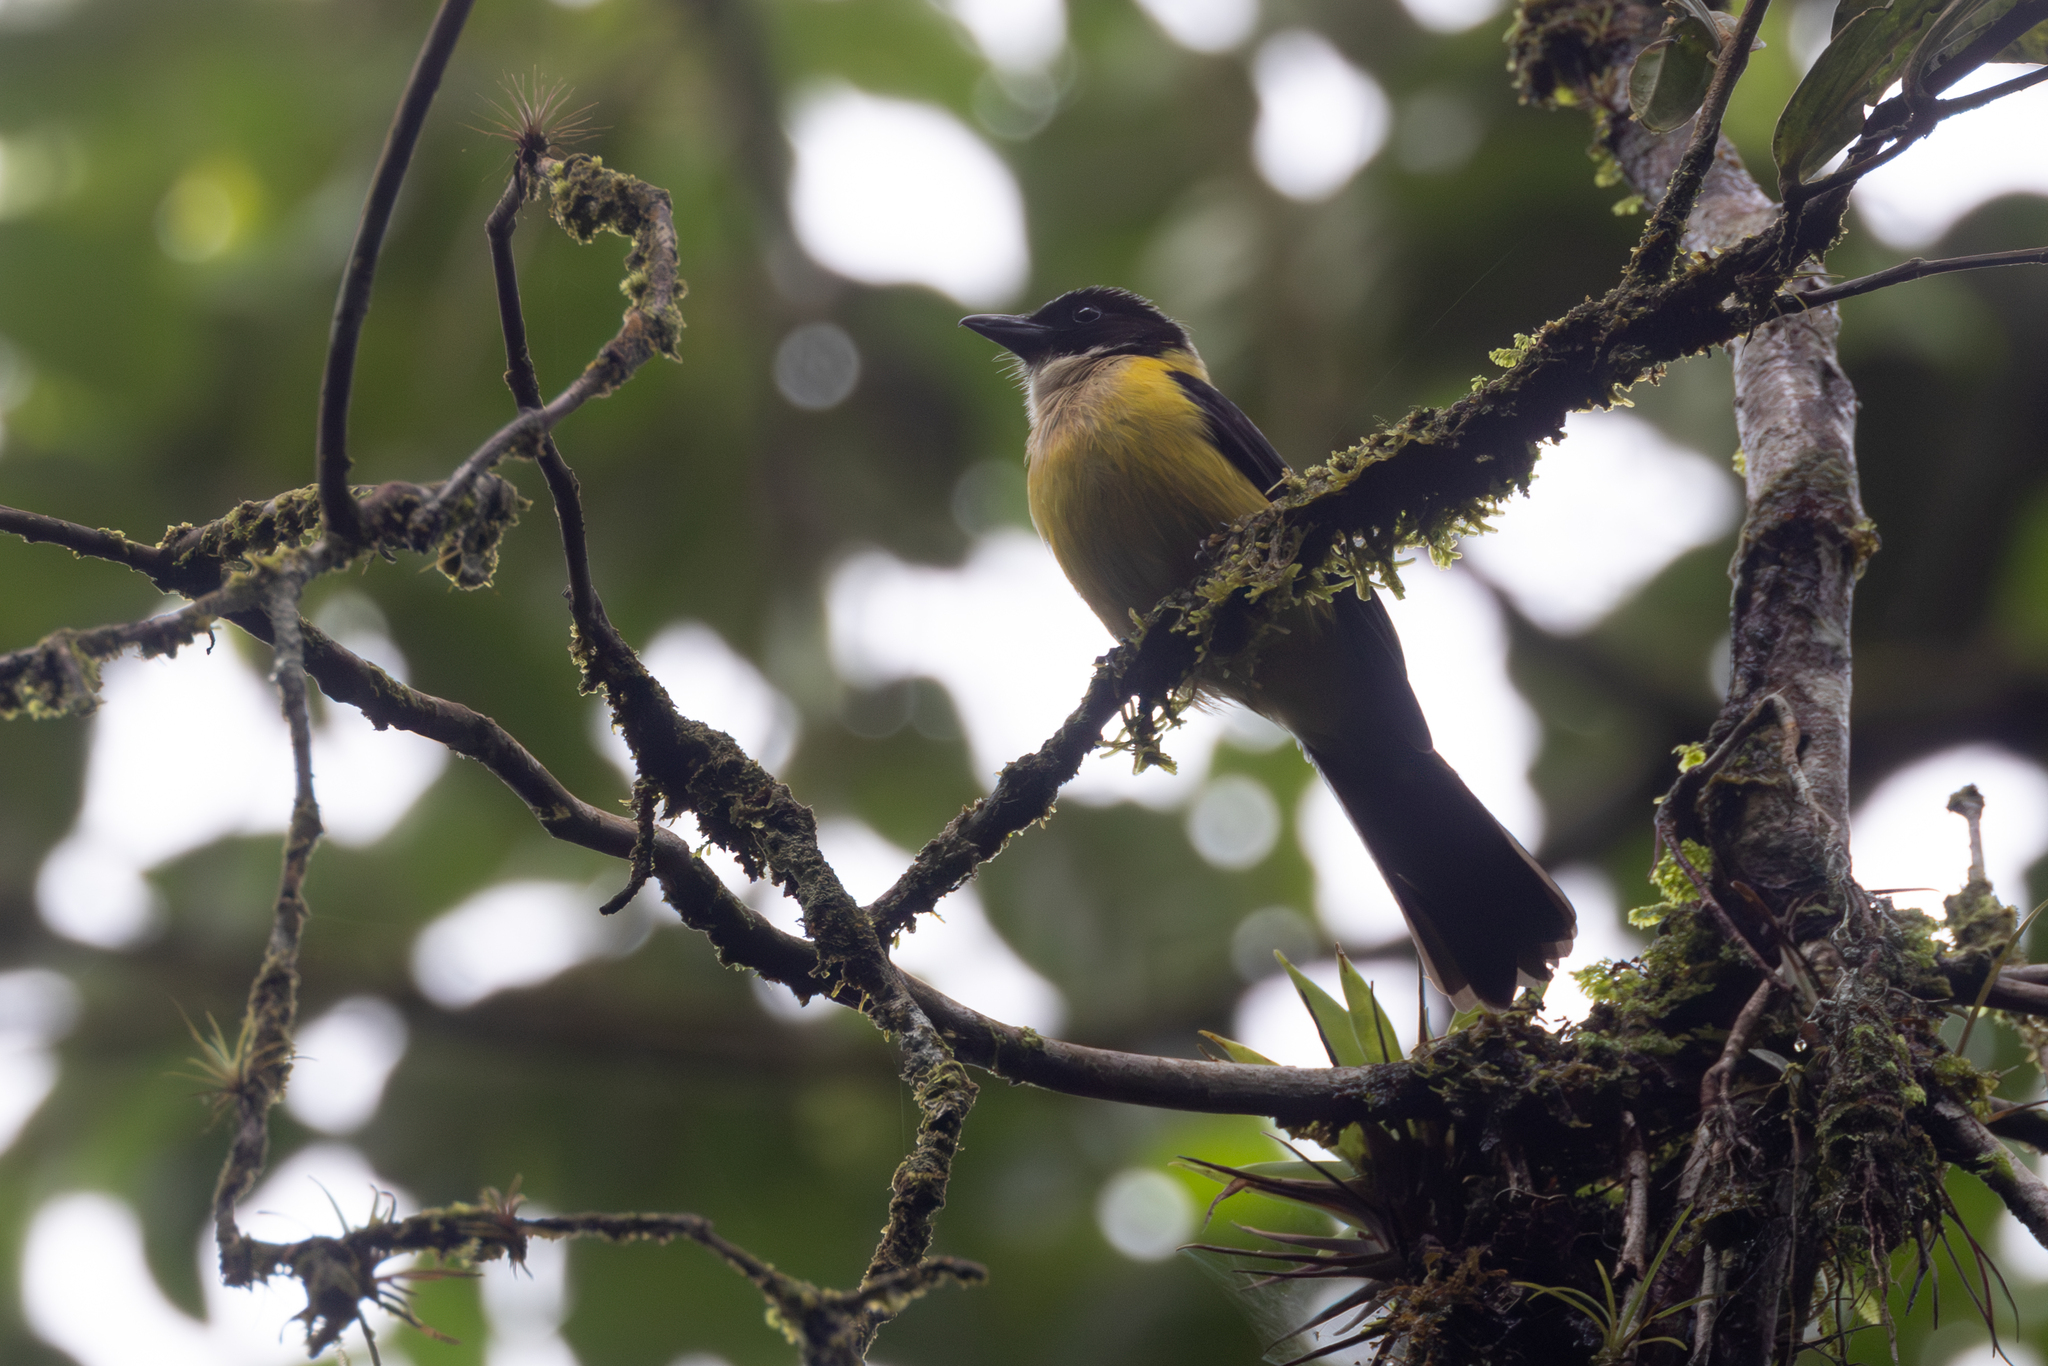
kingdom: Animalia
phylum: Chordata
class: Aves
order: Passeriformes
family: Thraupidae
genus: Lanio
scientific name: Lanio leucothorax
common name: White-throated shrike-tanager
